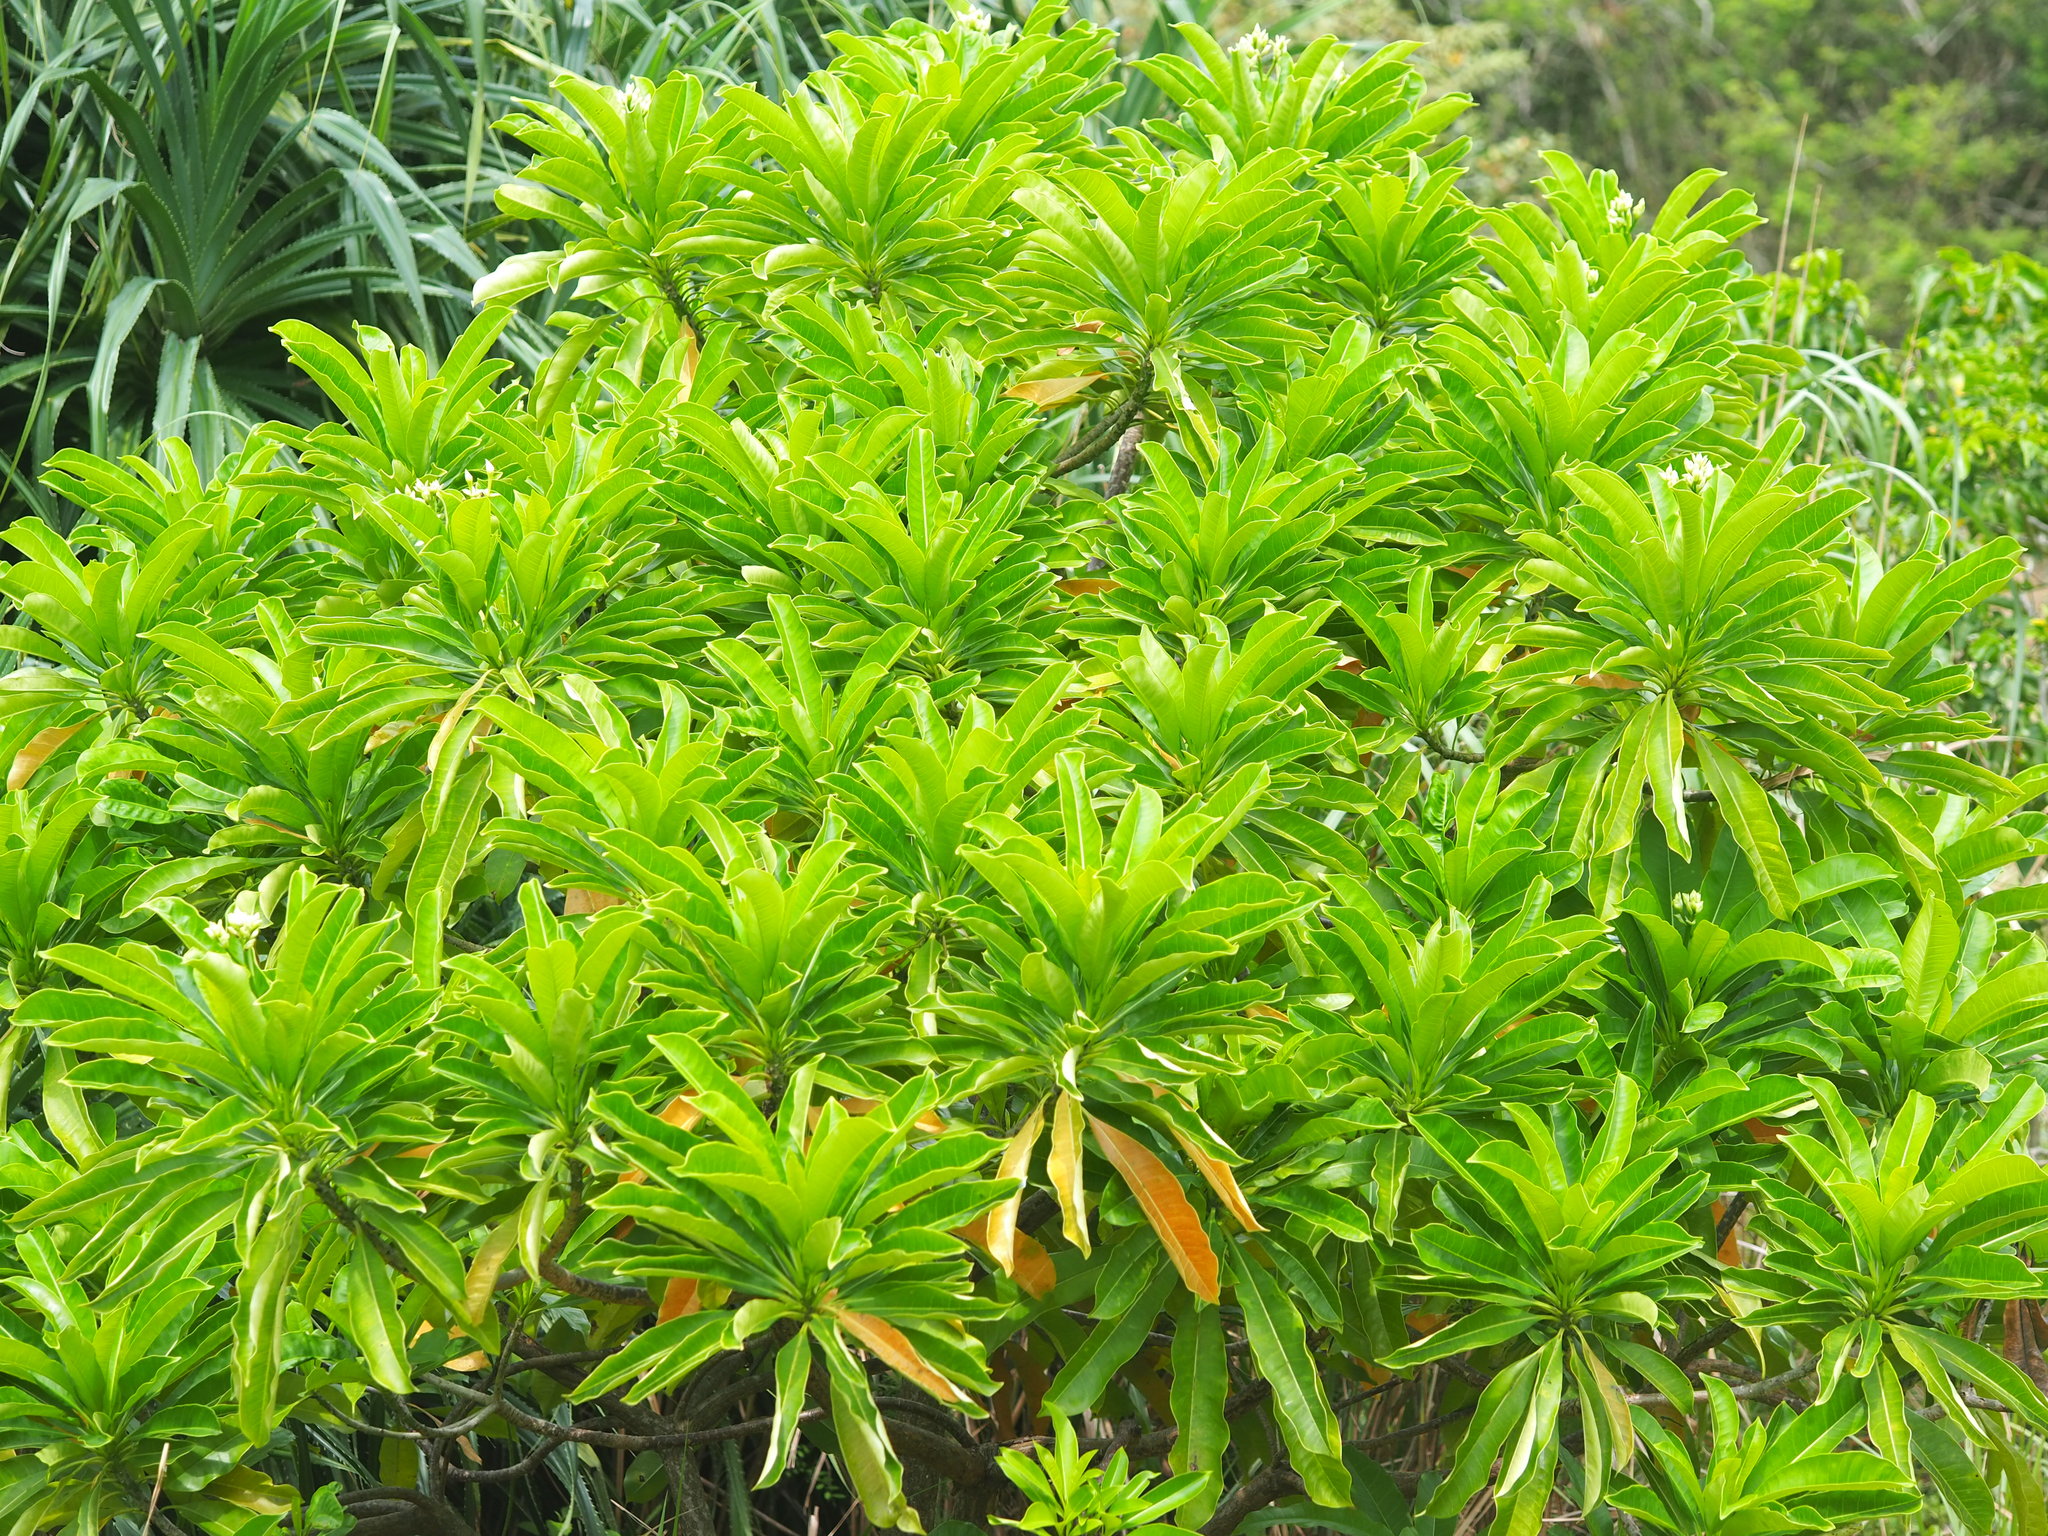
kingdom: Plantae
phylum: Tracheophyta
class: Magnoliopsida
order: Gentianales
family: Apocynaceae
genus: Cerbera
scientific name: Cerbera manghas
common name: Reva
